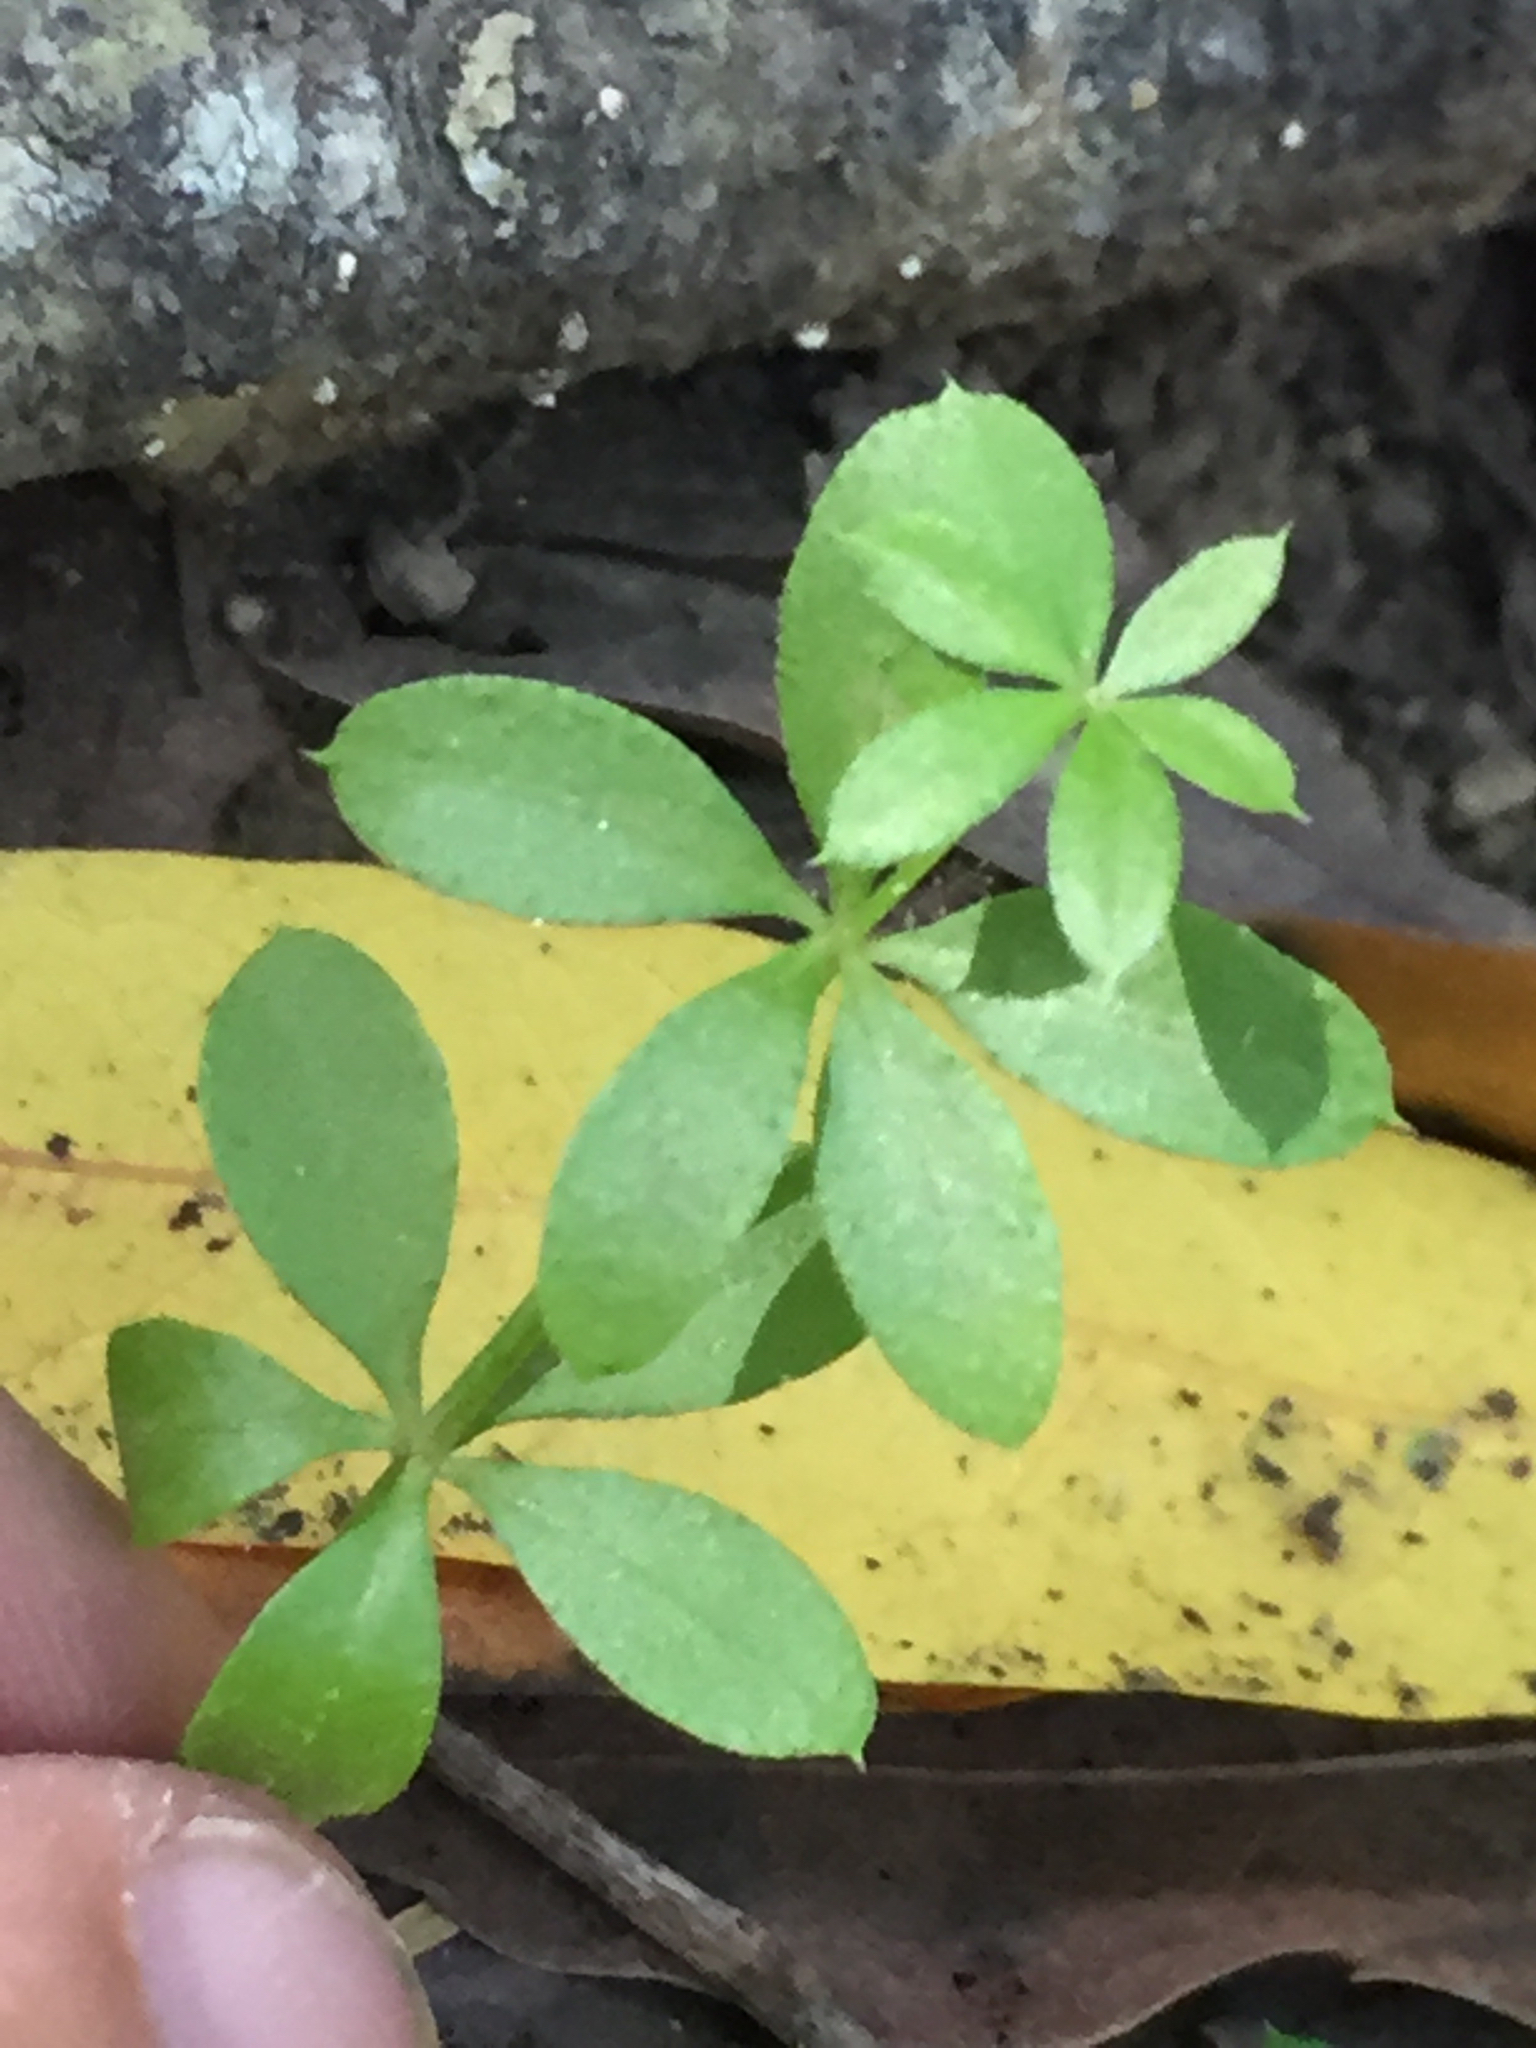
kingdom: Plantae
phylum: Tracheophyta
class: Magnoliopsida
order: Gentianales
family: Rubiaceae
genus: Galium
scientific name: Galium triflorum
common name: Fragrant bedstraw
